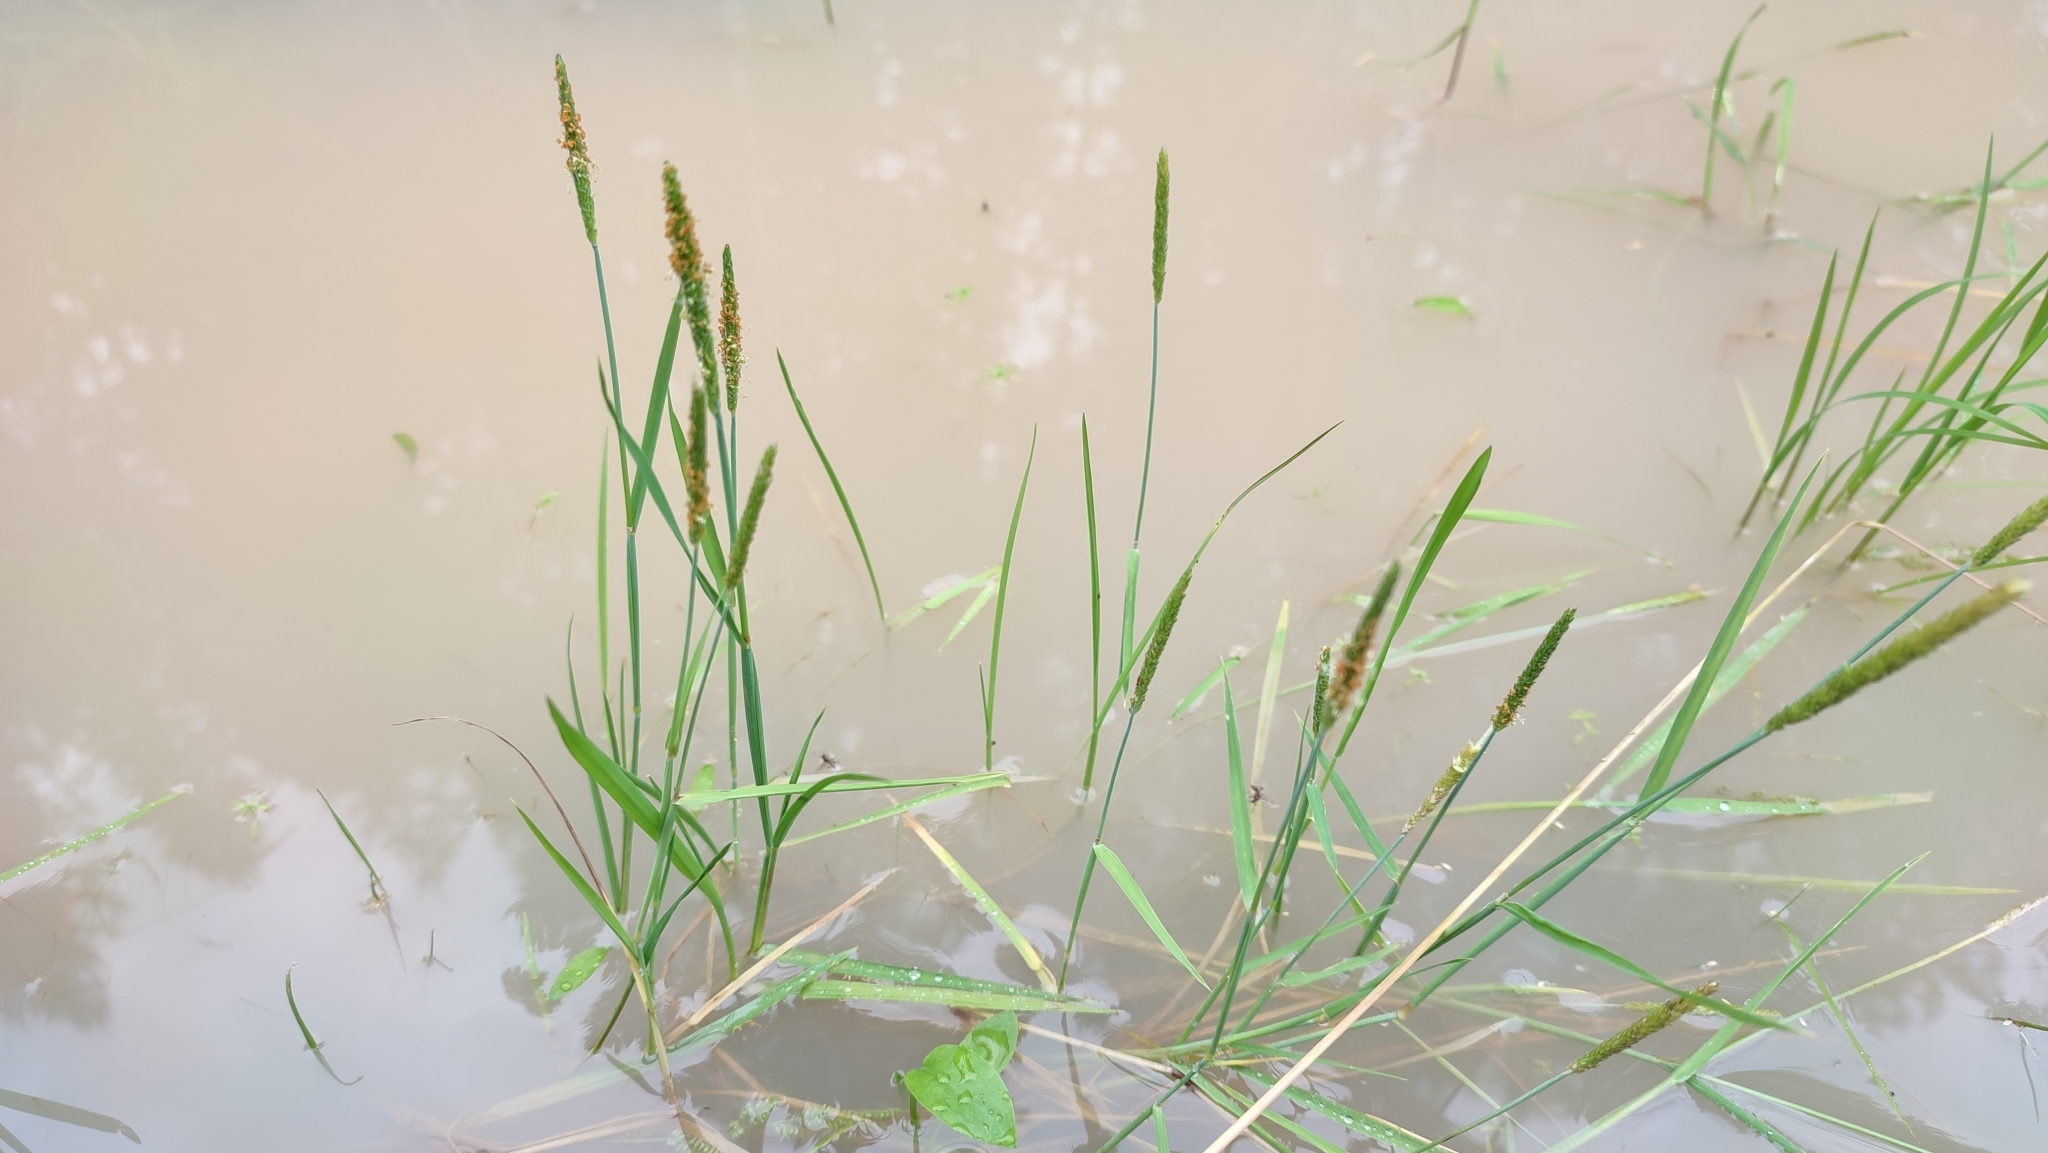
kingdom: Plantae
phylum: Tracheophyta
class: Liliopsida
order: Poales
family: Poaceae
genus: Alopecurus
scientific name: Alopecurus aequalis
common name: Orange foxtail
